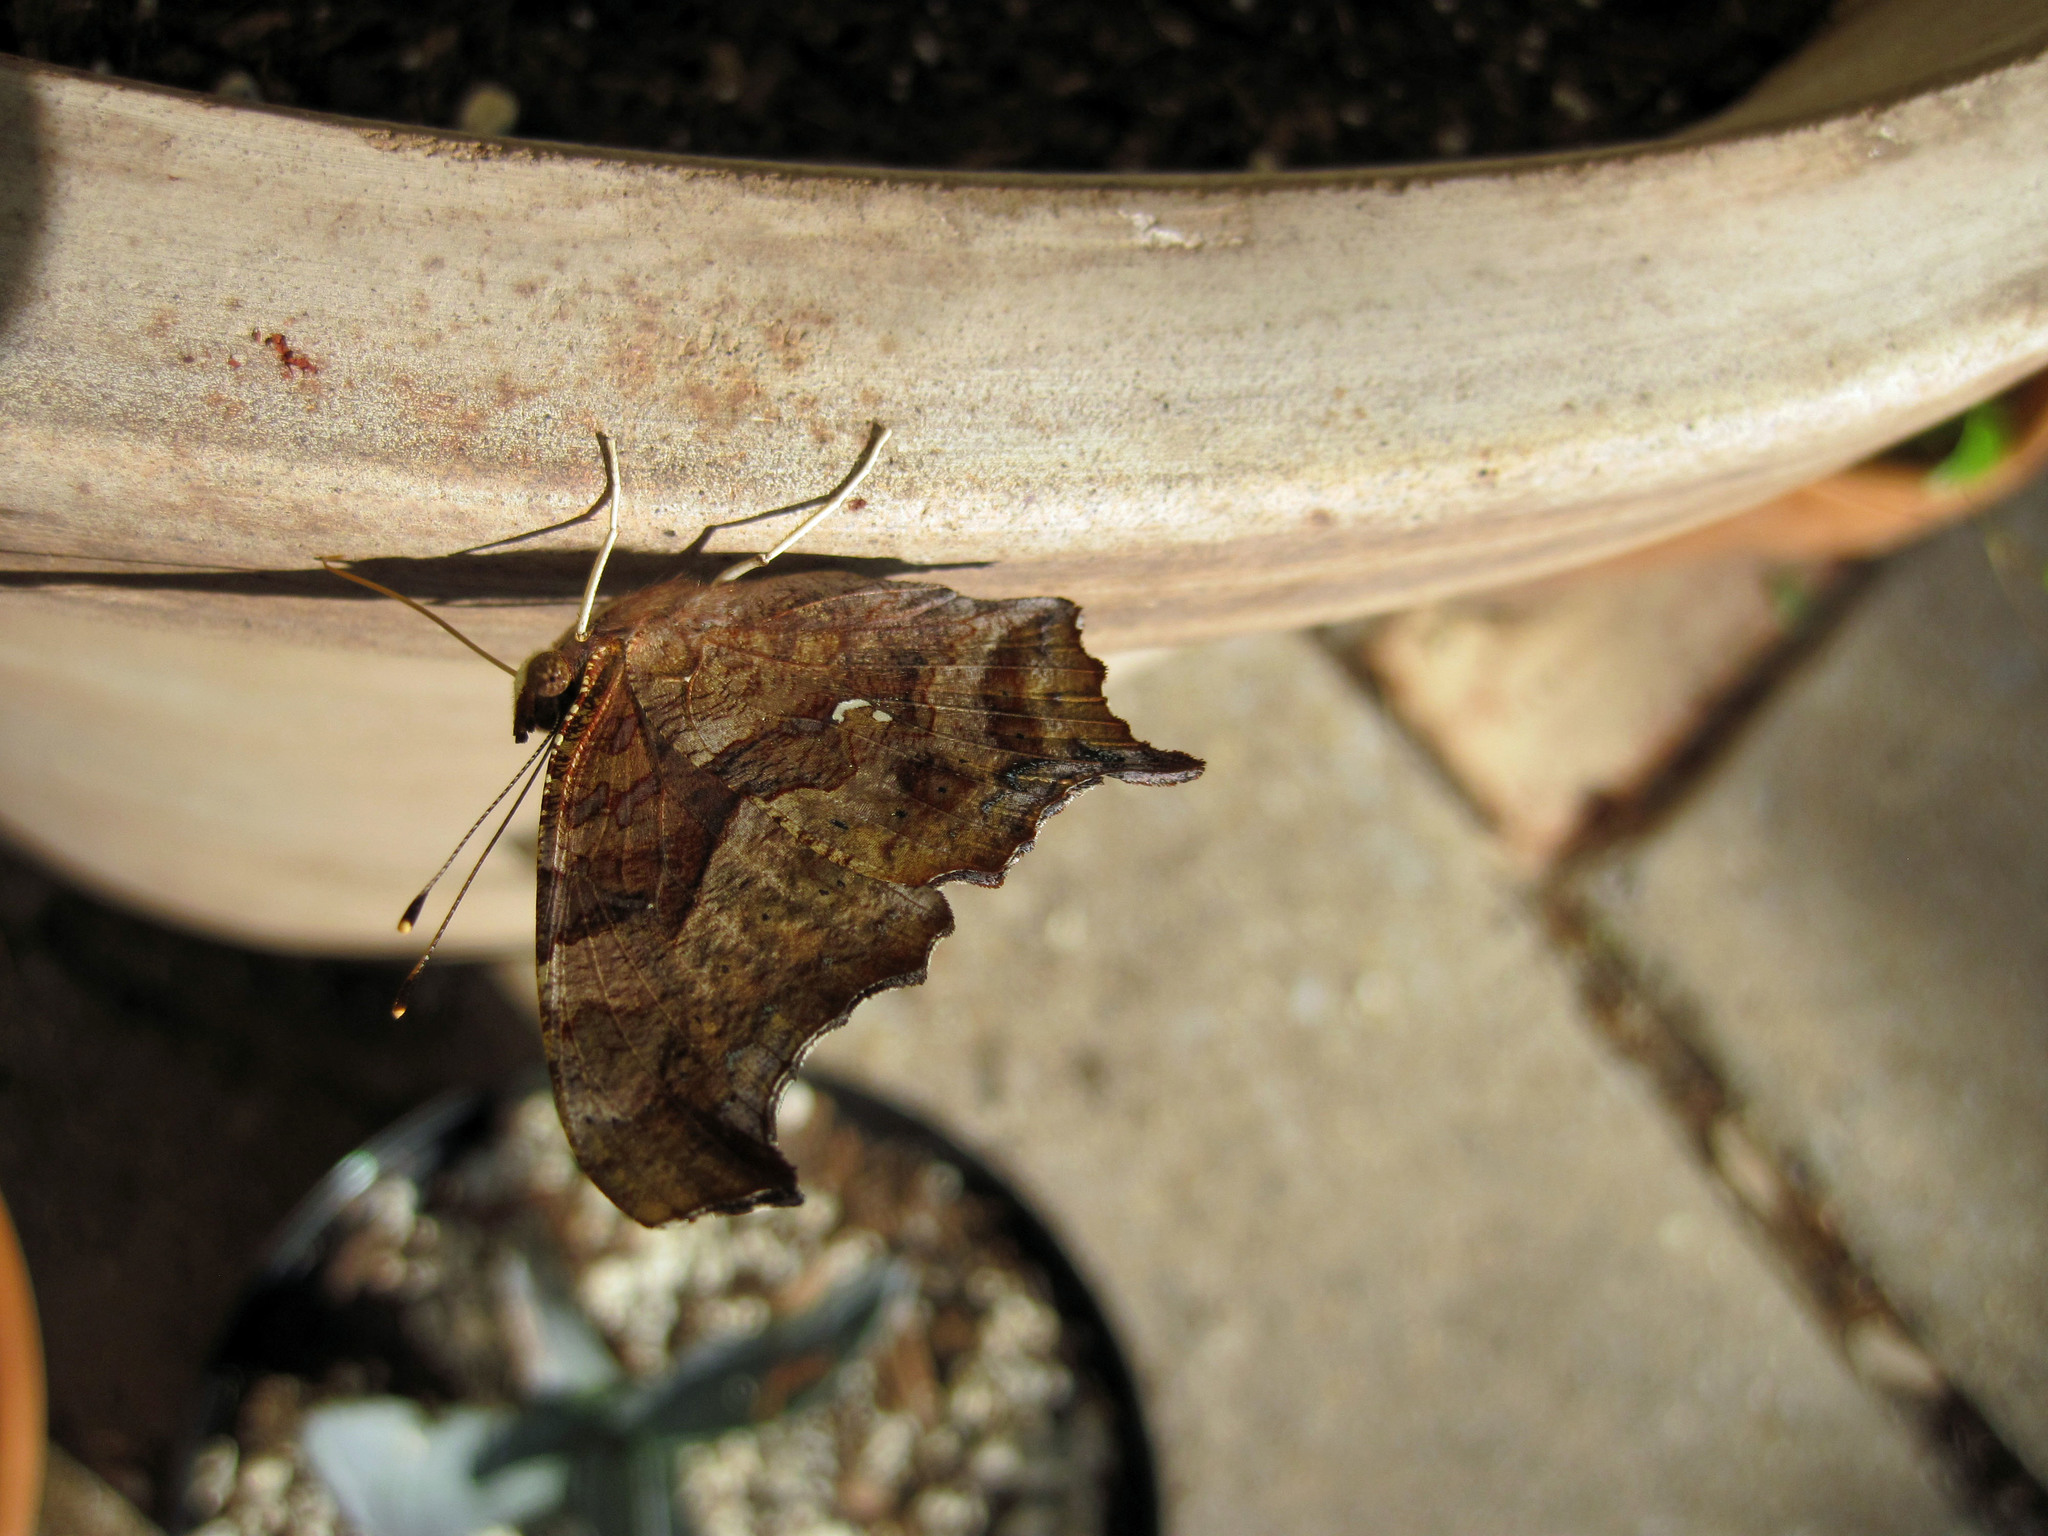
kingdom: Animalia
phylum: Arthropoda
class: Insecta
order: Lepidoptera
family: Nymphalidae
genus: Polygonia
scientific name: Polygonia interrogationis
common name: Question mark
